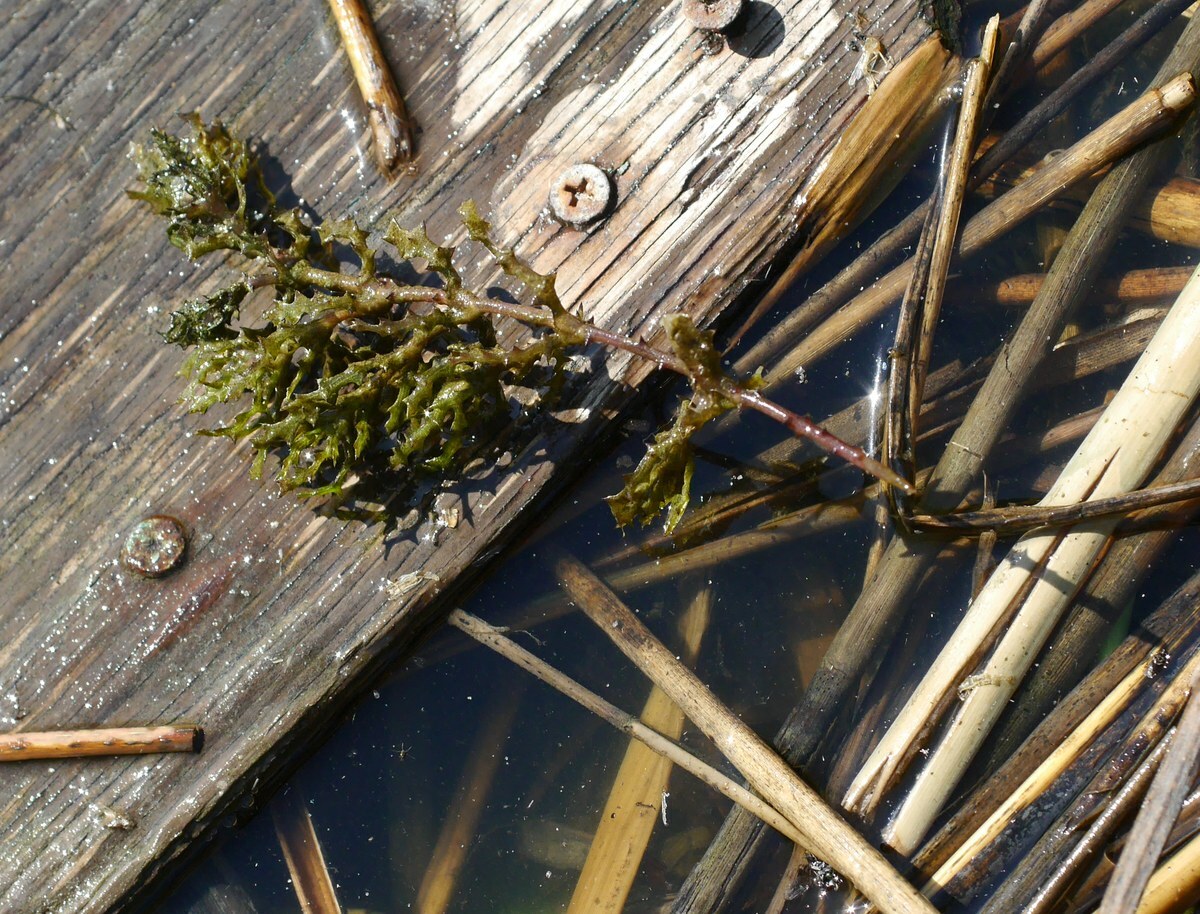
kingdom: Plantae
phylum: Tracheophyta
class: Liliopsida
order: Alismatales
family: Hydrocharitaceae
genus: Najas
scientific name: Najas marina
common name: Holly-leaved naiad
